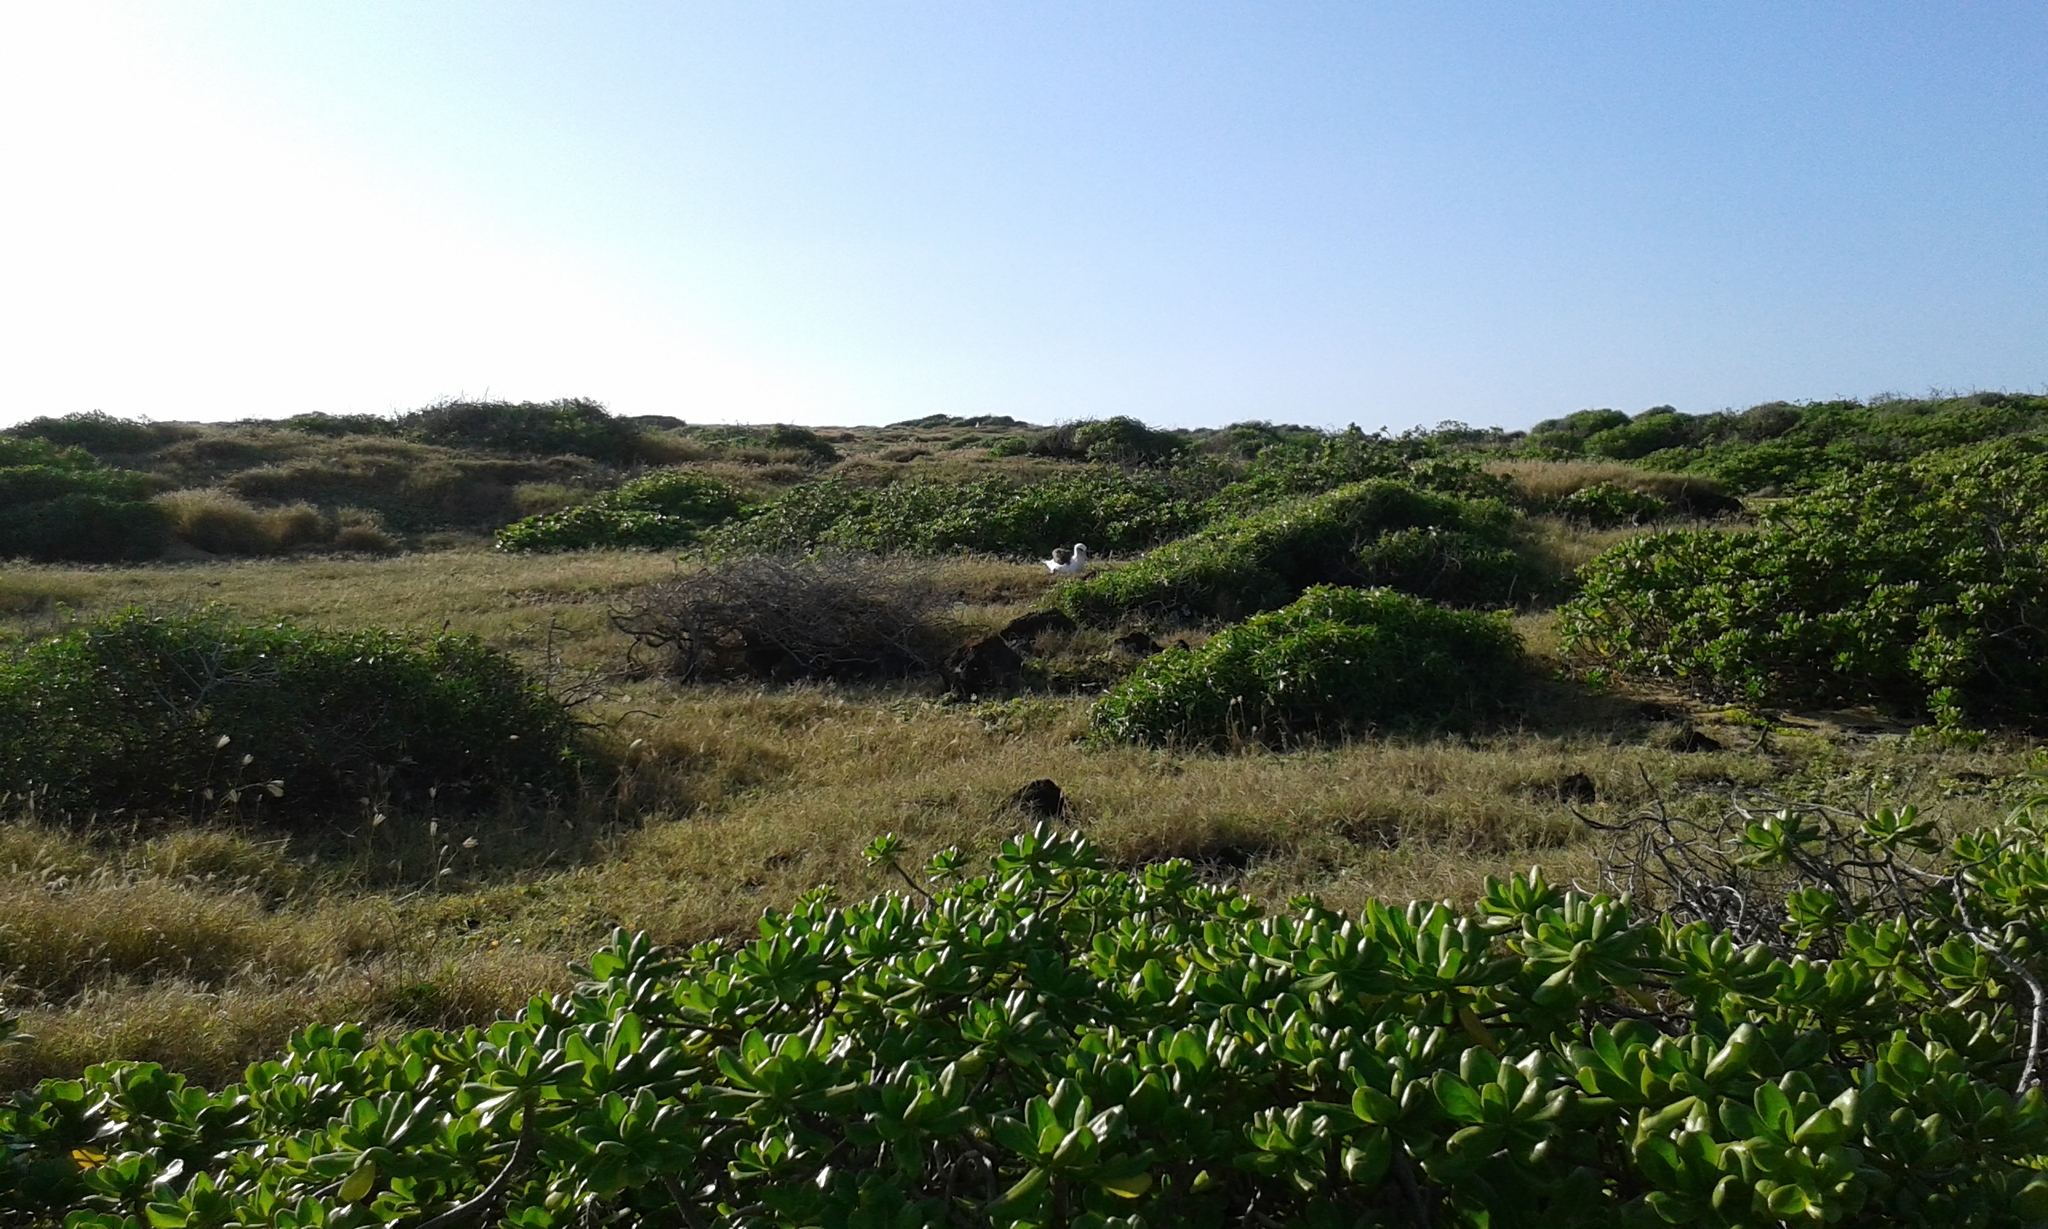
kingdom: Animalia
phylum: Chordata
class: Aves
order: Procellariiformes
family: Diomedeidae
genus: Phoebastria
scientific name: Phoebastria immutabilis
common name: Laysan albatross
